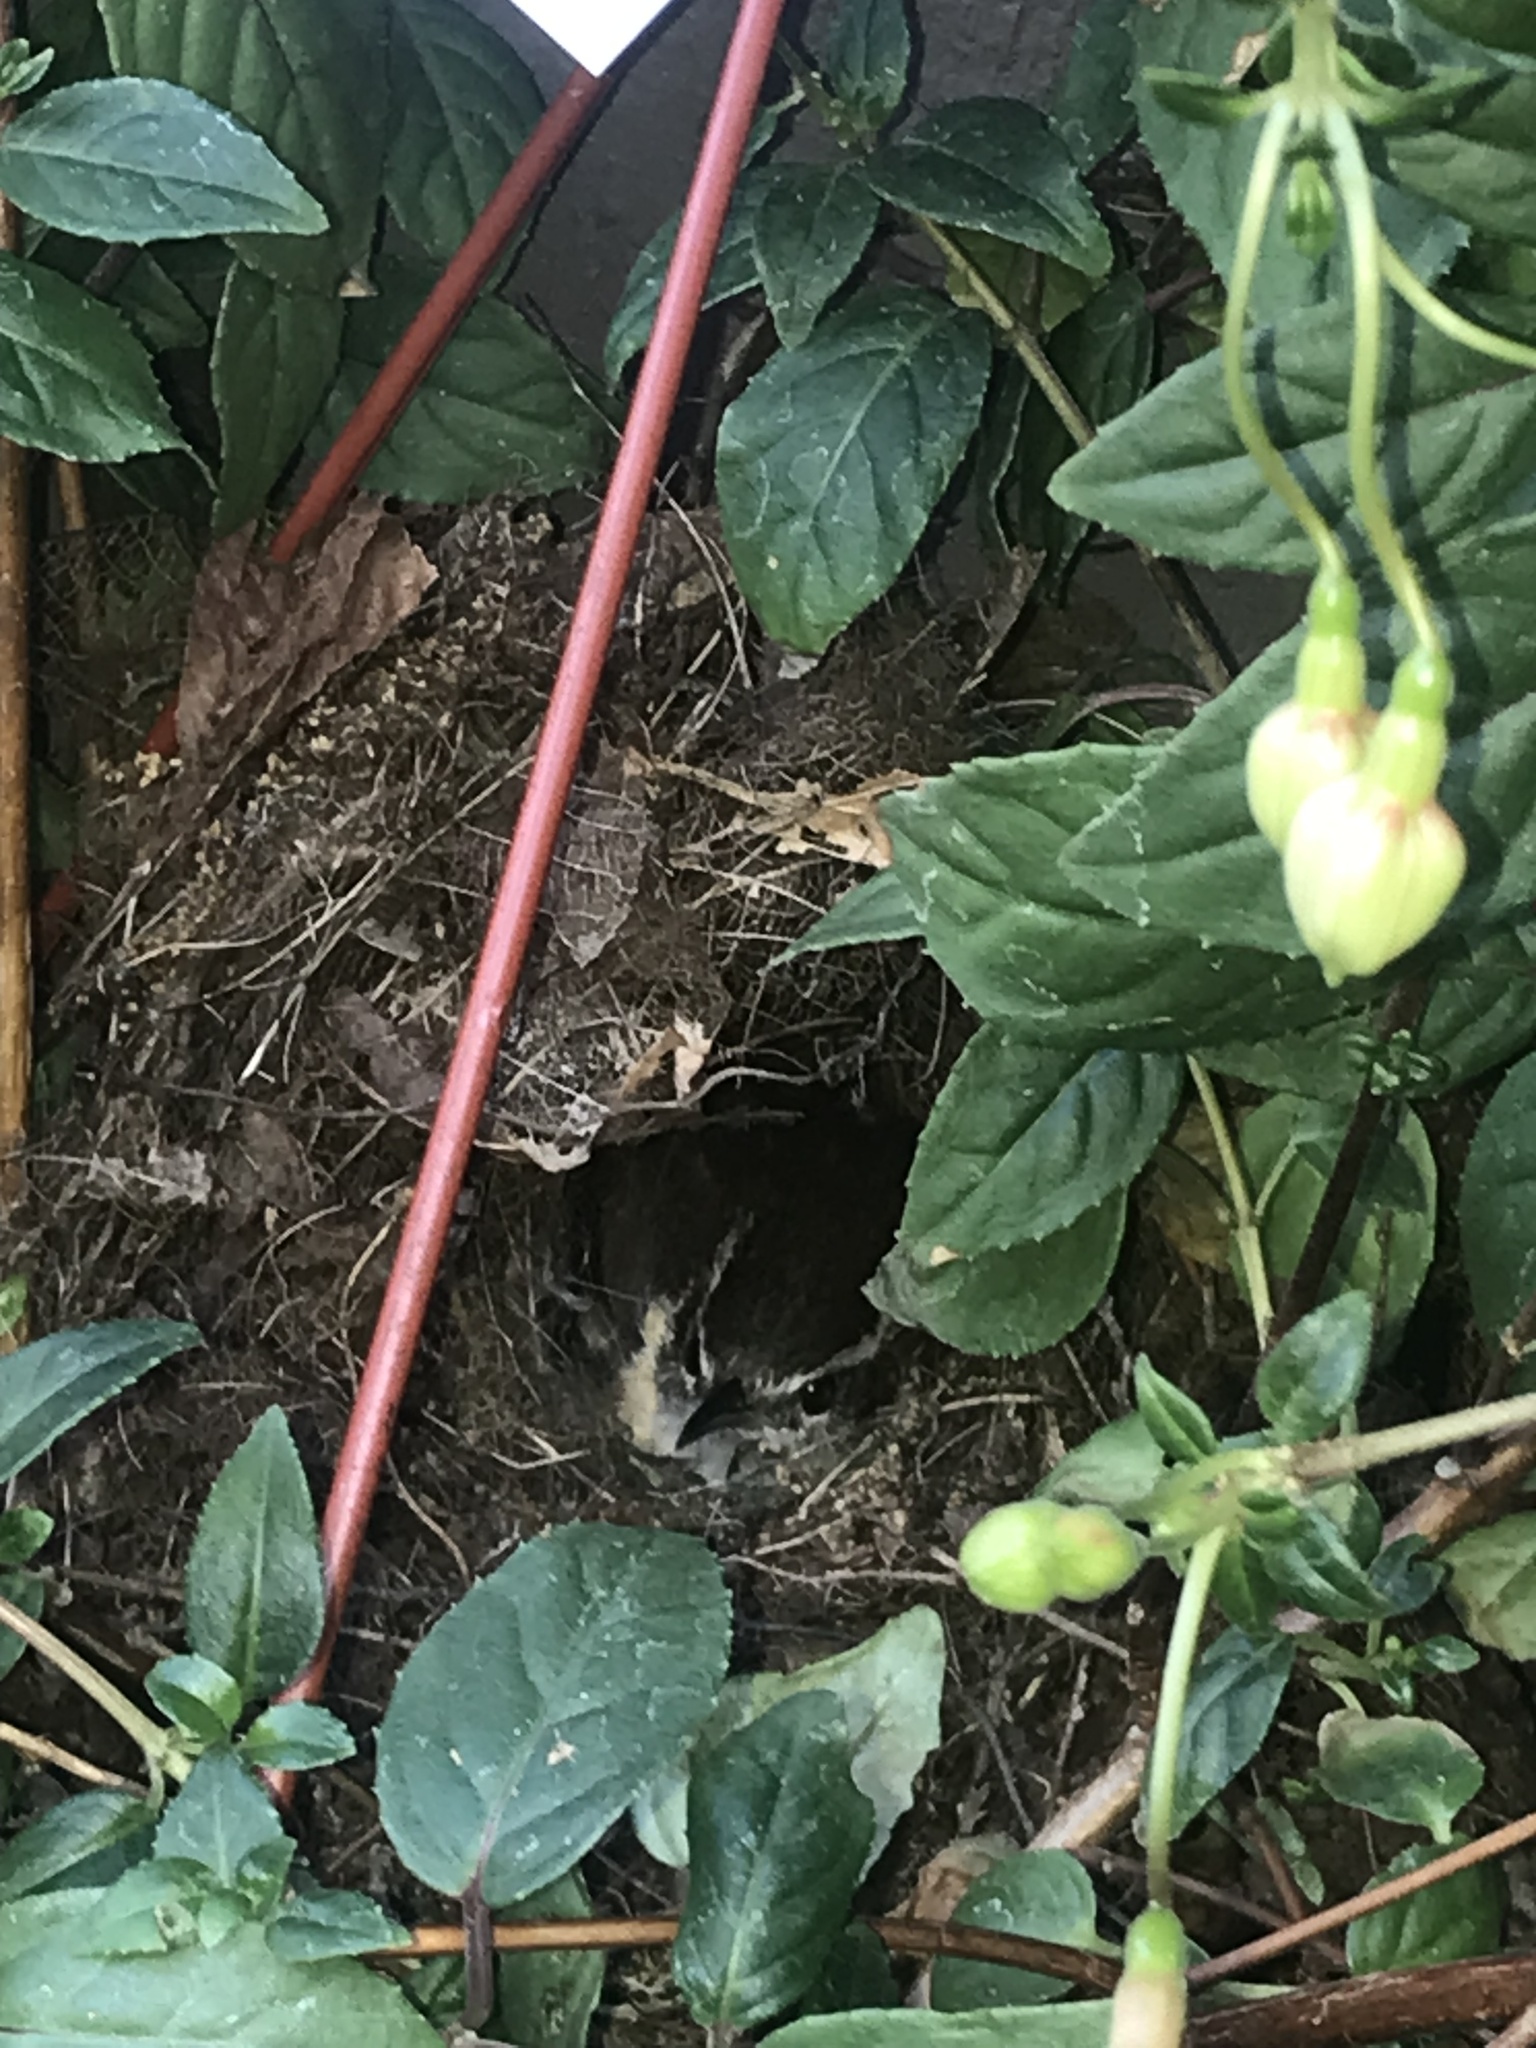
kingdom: Animalia
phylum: Chordata
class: Aves
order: Passeriformes
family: Troglodytidae
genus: Thryothorus
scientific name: Thryothorus ludovicianus
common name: Carolina wren
